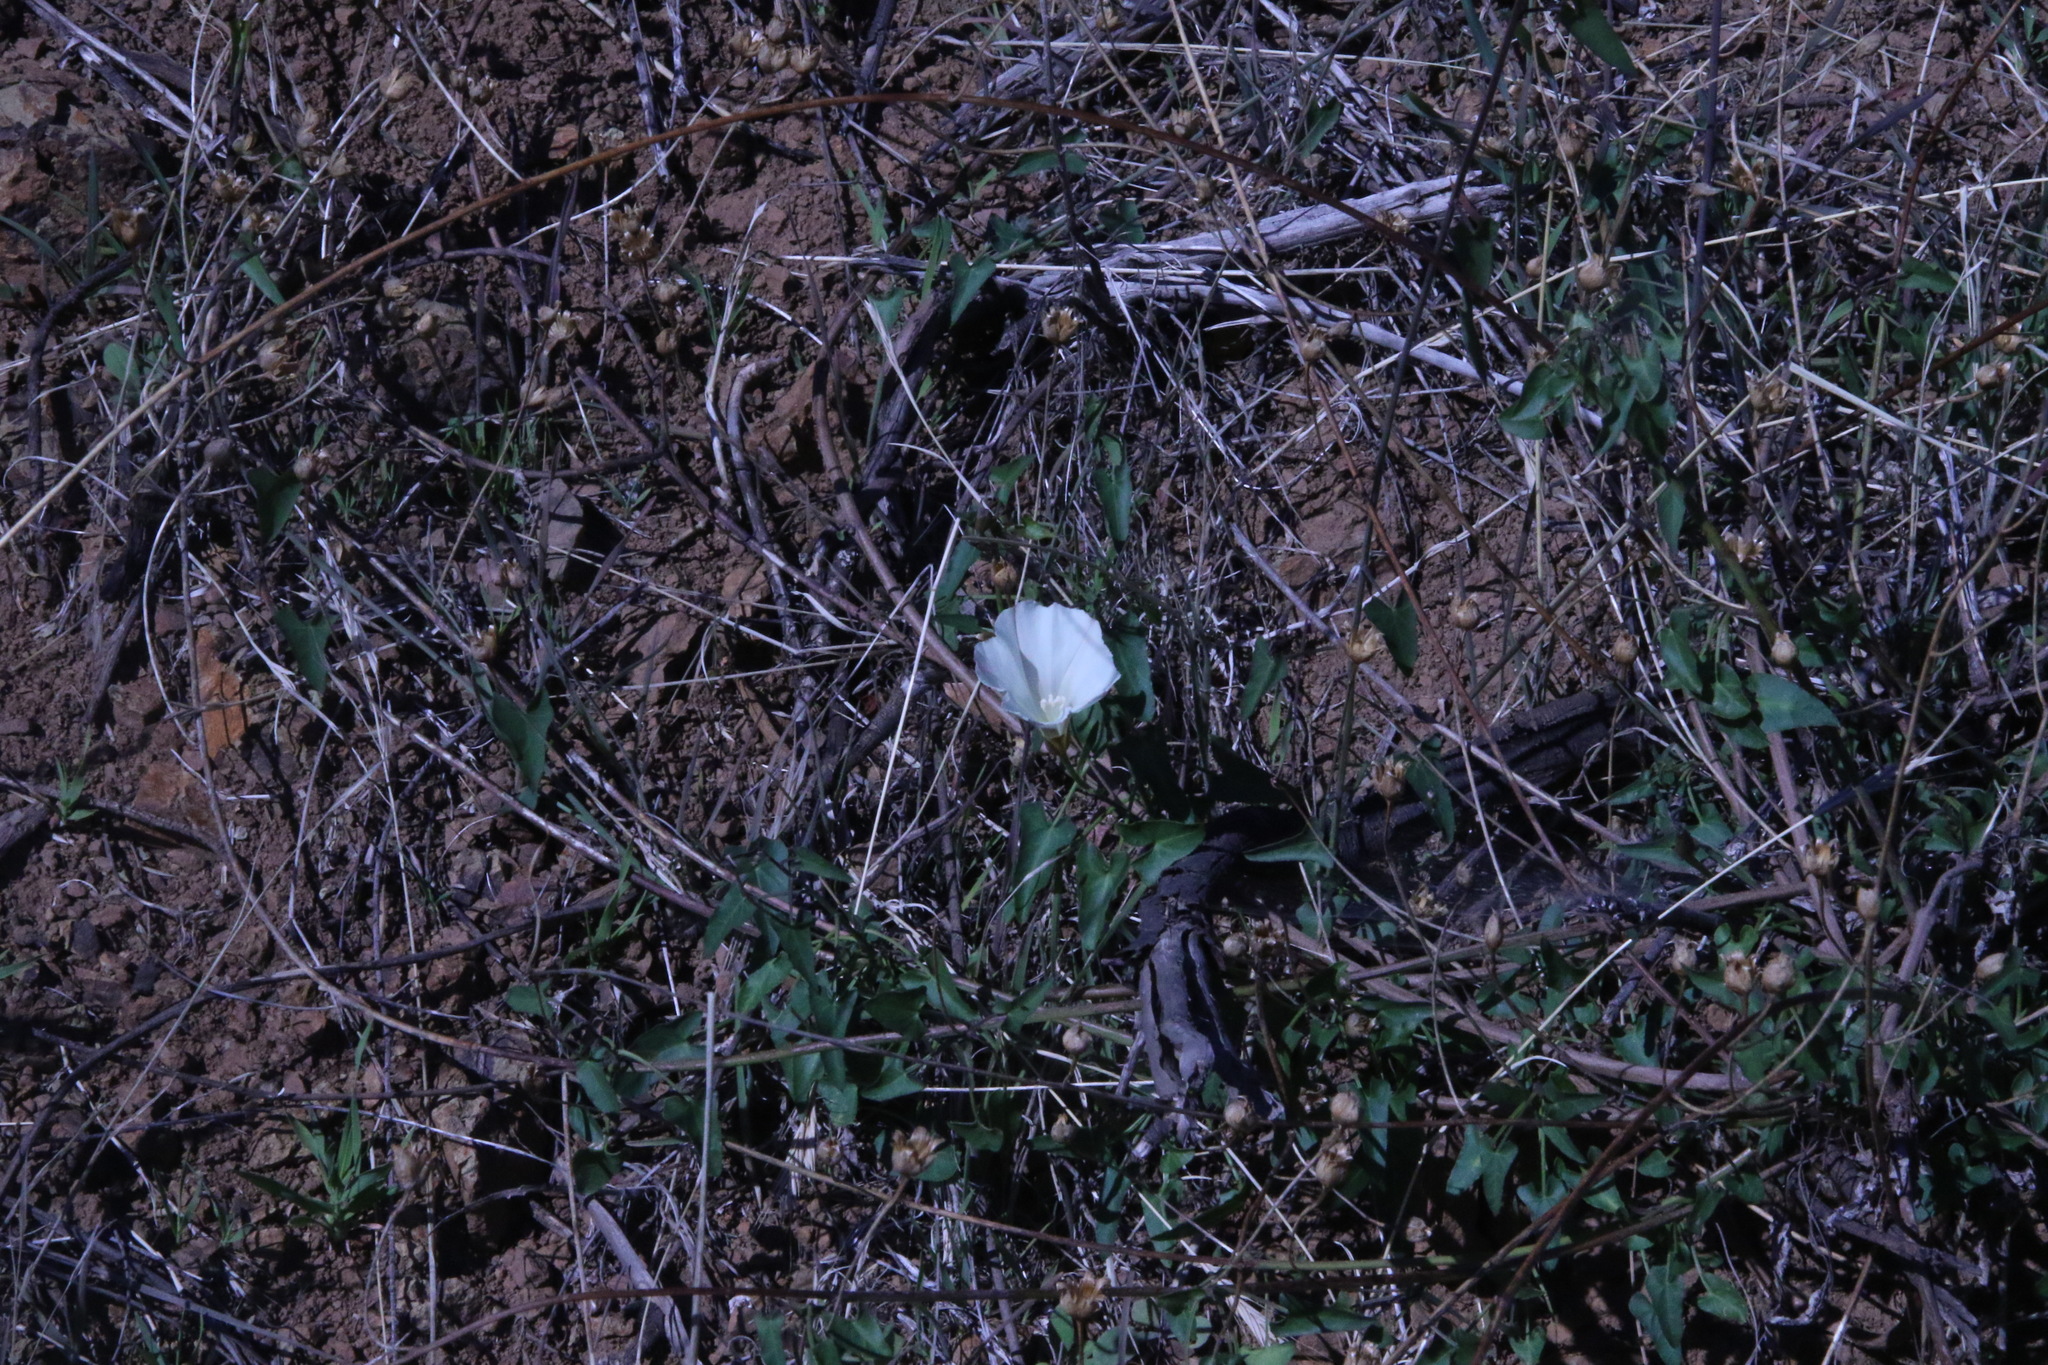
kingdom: Plantae
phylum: Tracheophyta
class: Magnoliopsida
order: Solanales
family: Convolvulaceae
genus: Calystegia
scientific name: Calystegia purpurata
